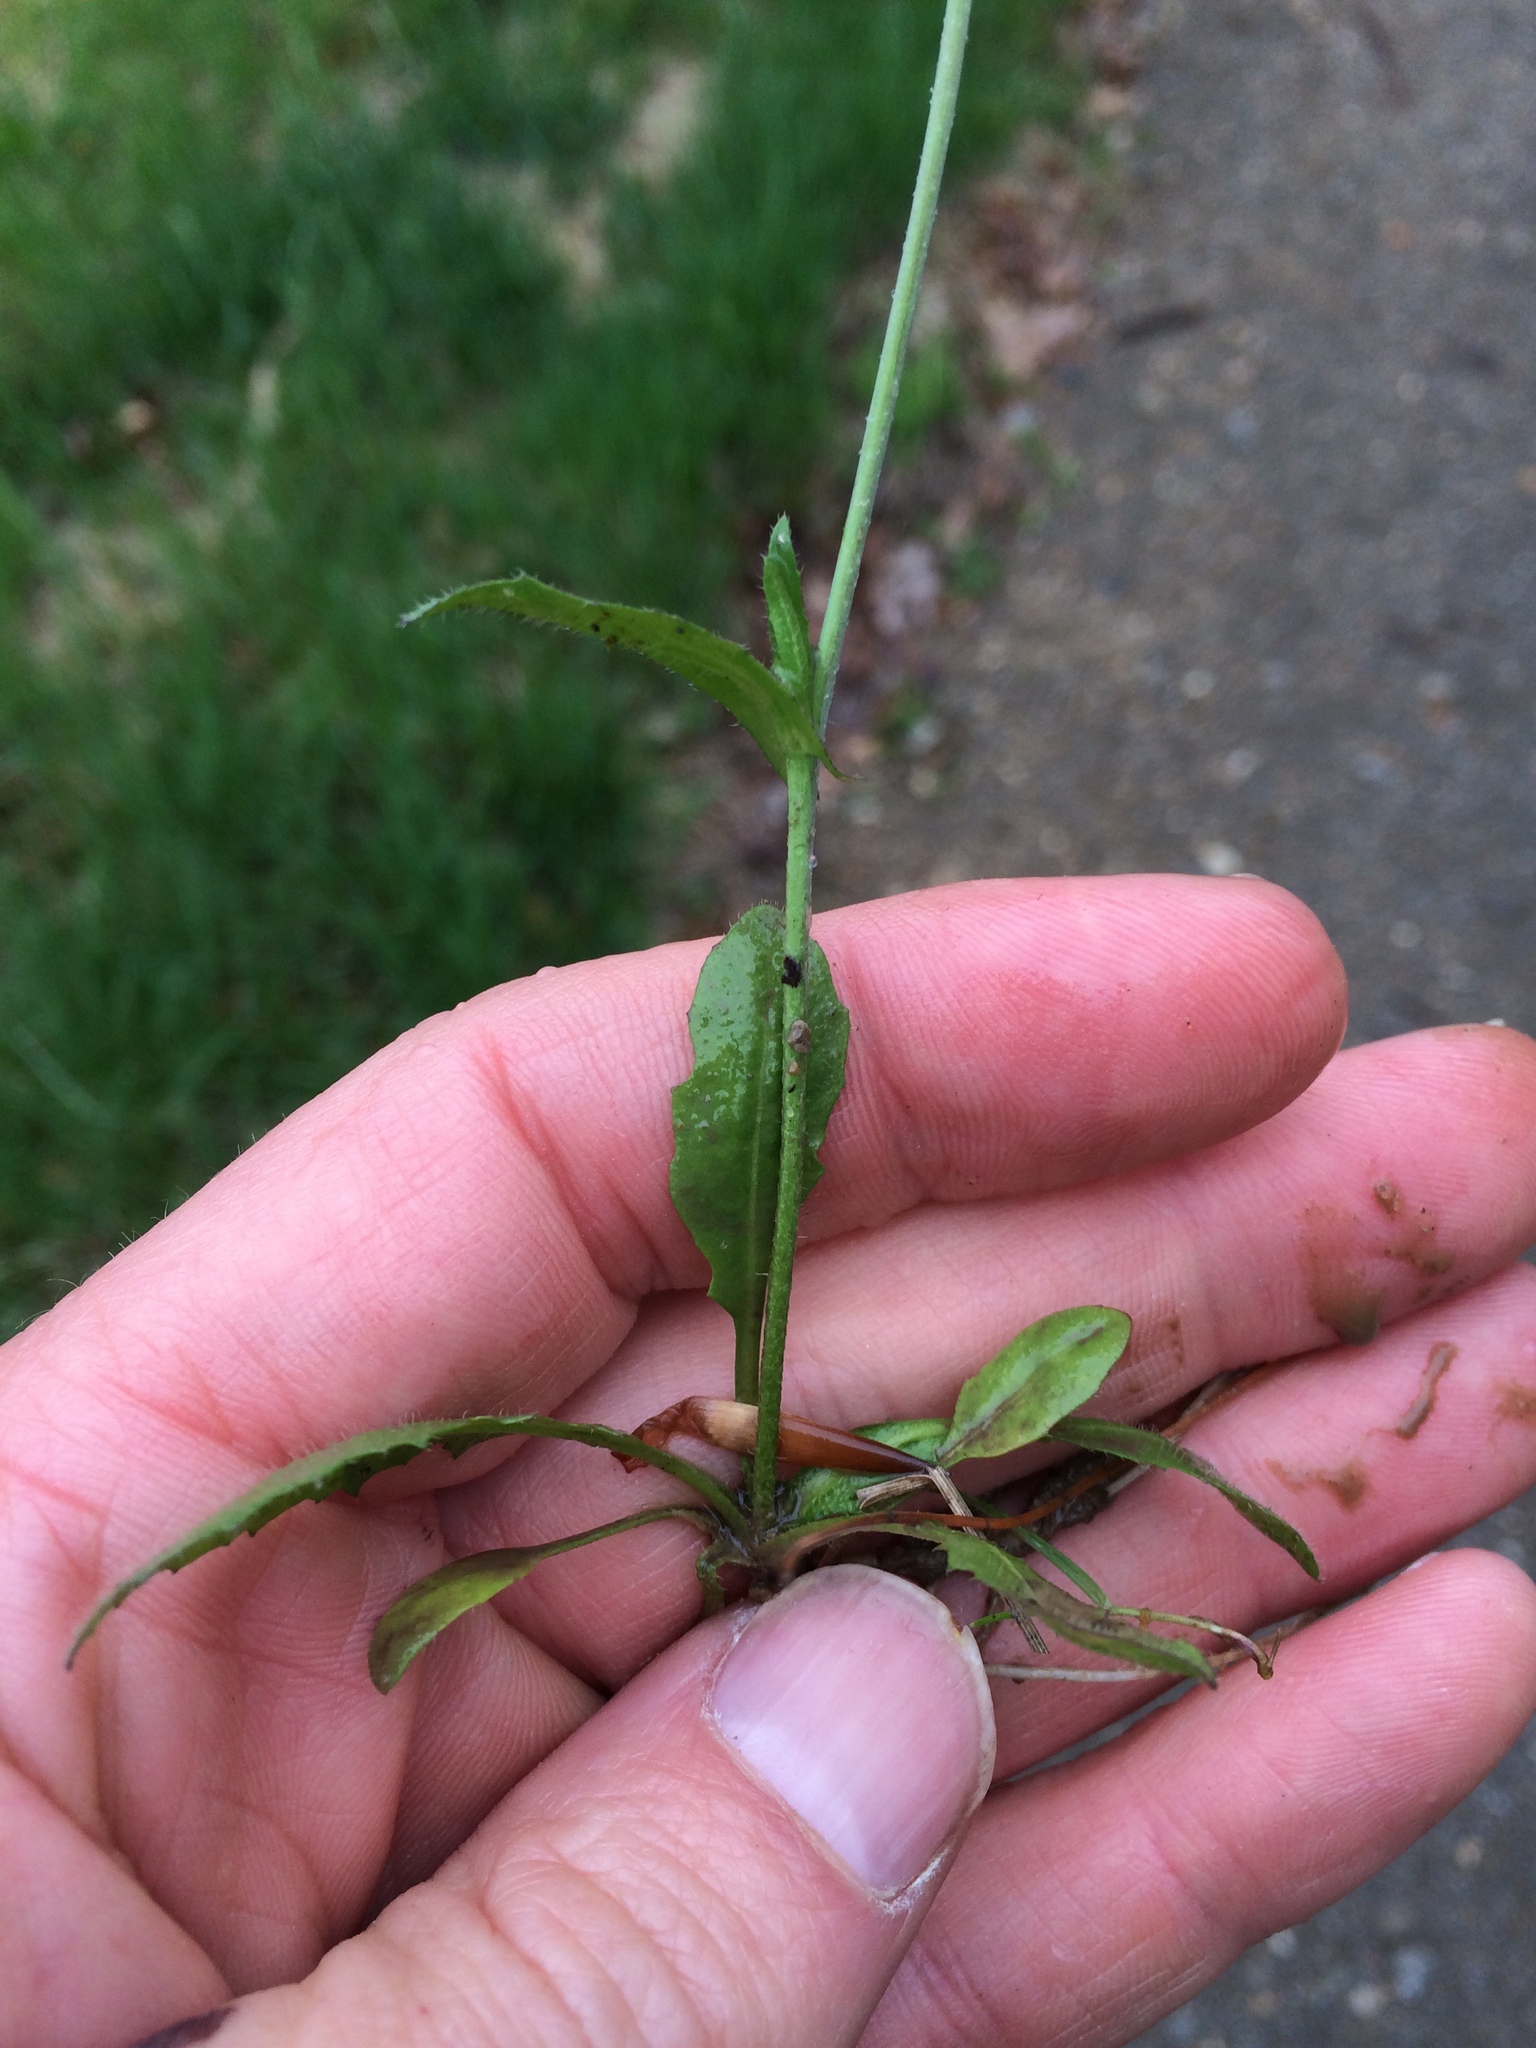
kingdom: Plantae
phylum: Tracheophyta
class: Magnoliopsida
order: Brassicales
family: Brassicaceae
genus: Capsella
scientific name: Capsella bursa-pastoris
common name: Shepherd's purse
